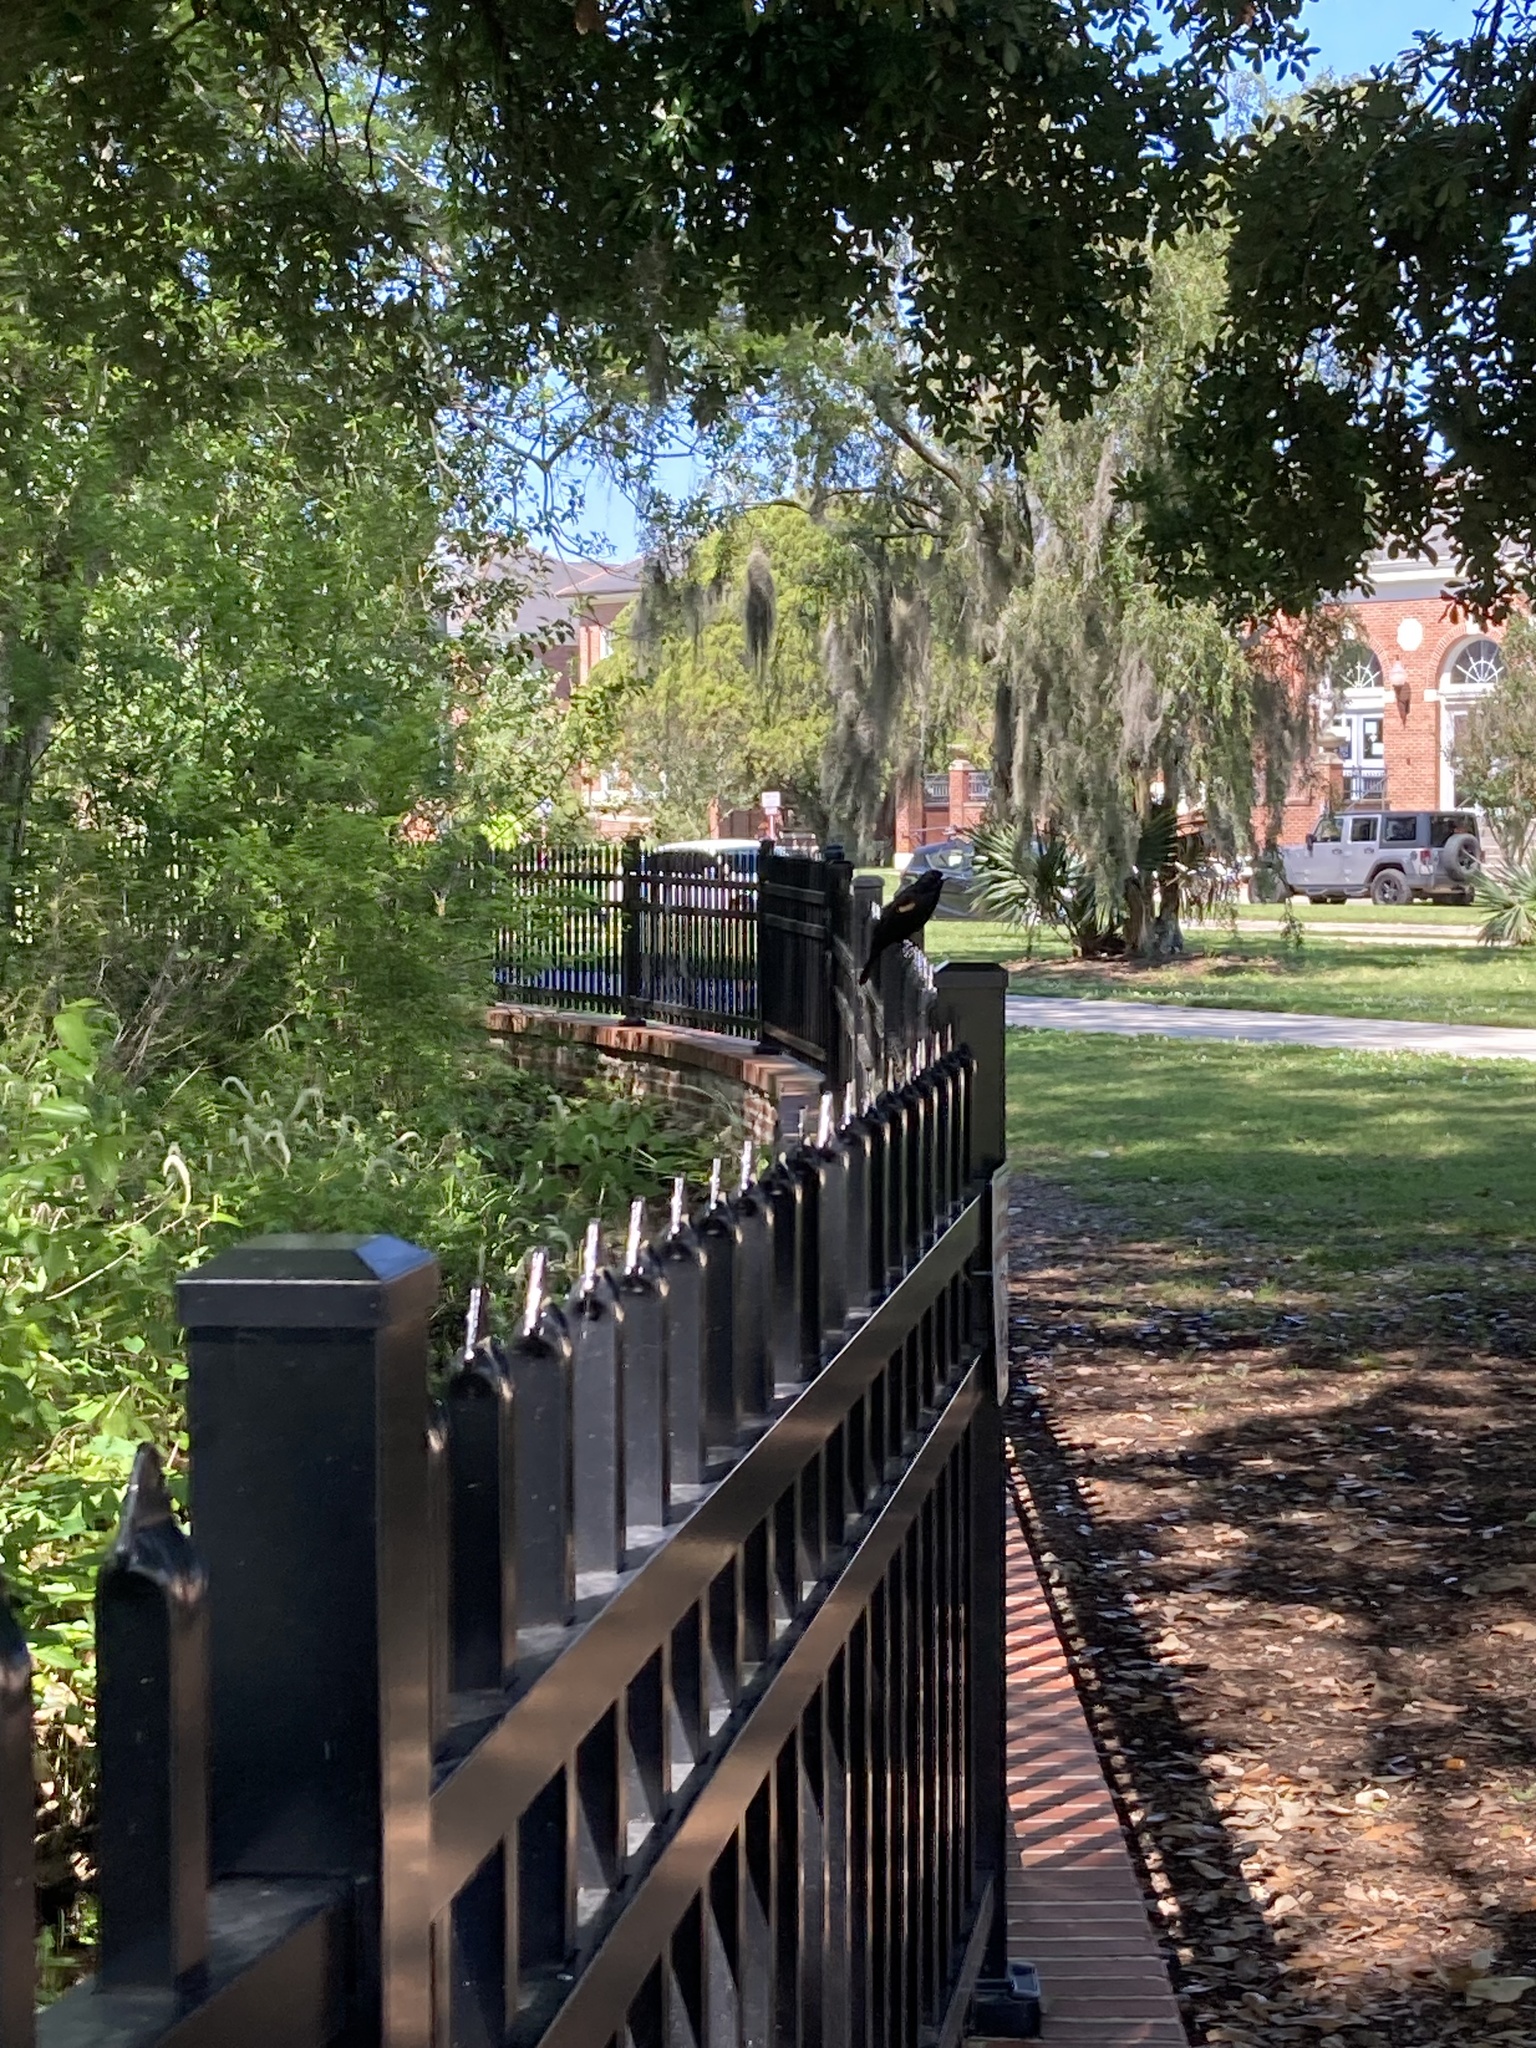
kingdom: Animalia
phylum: Chordata
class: Aves
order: Passeriformes
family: Icteridae
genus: Agelaius
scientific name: Agelaius phoeniceus
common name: Red-winged blackbird
